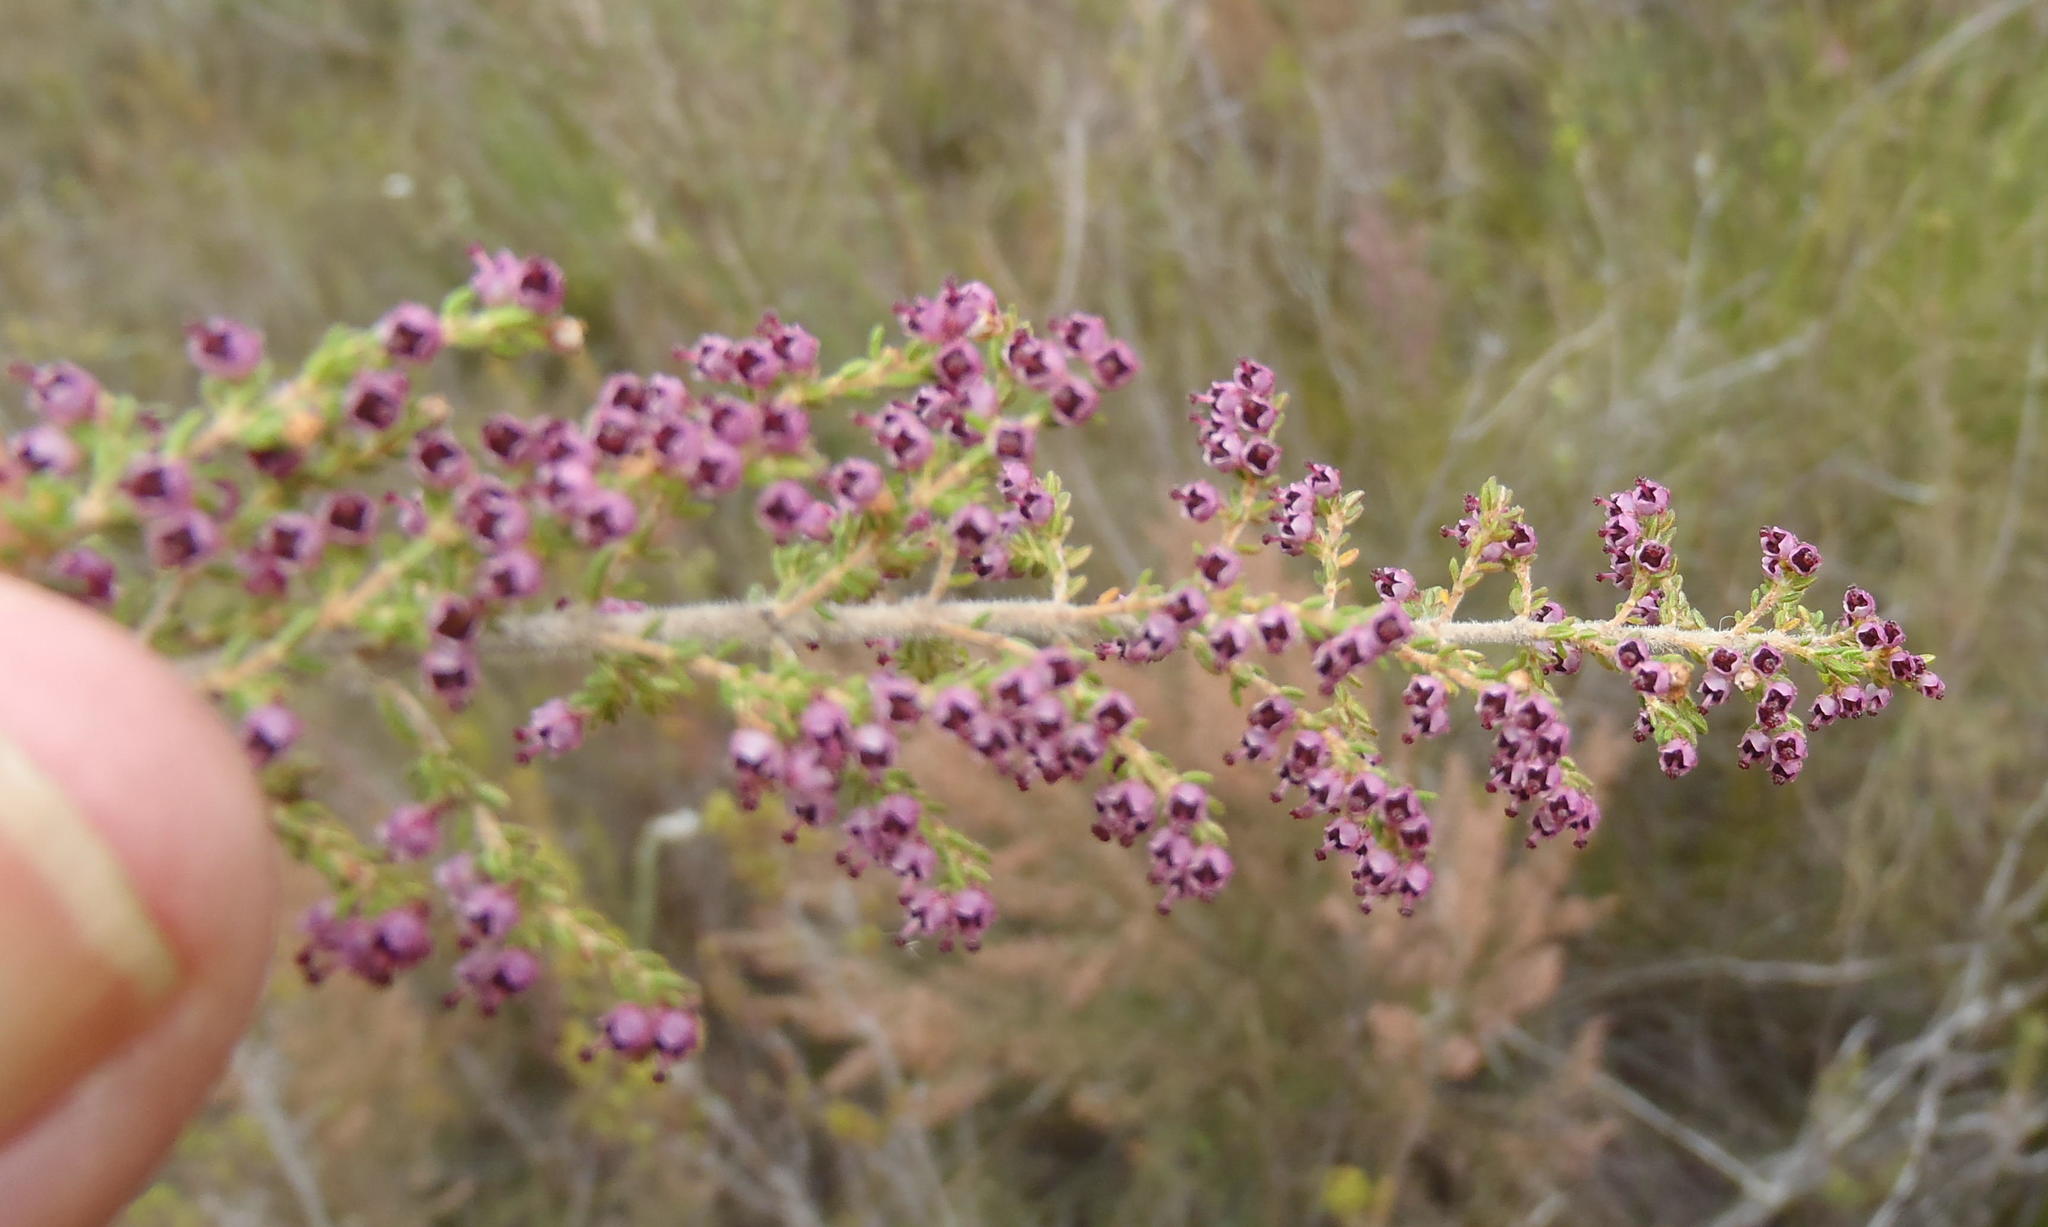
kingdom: Plantae
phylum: Tracheophyta
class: Magnoliopsida
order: Ericales
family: Ericaceae
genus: Erica
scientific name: Erica hispidula
